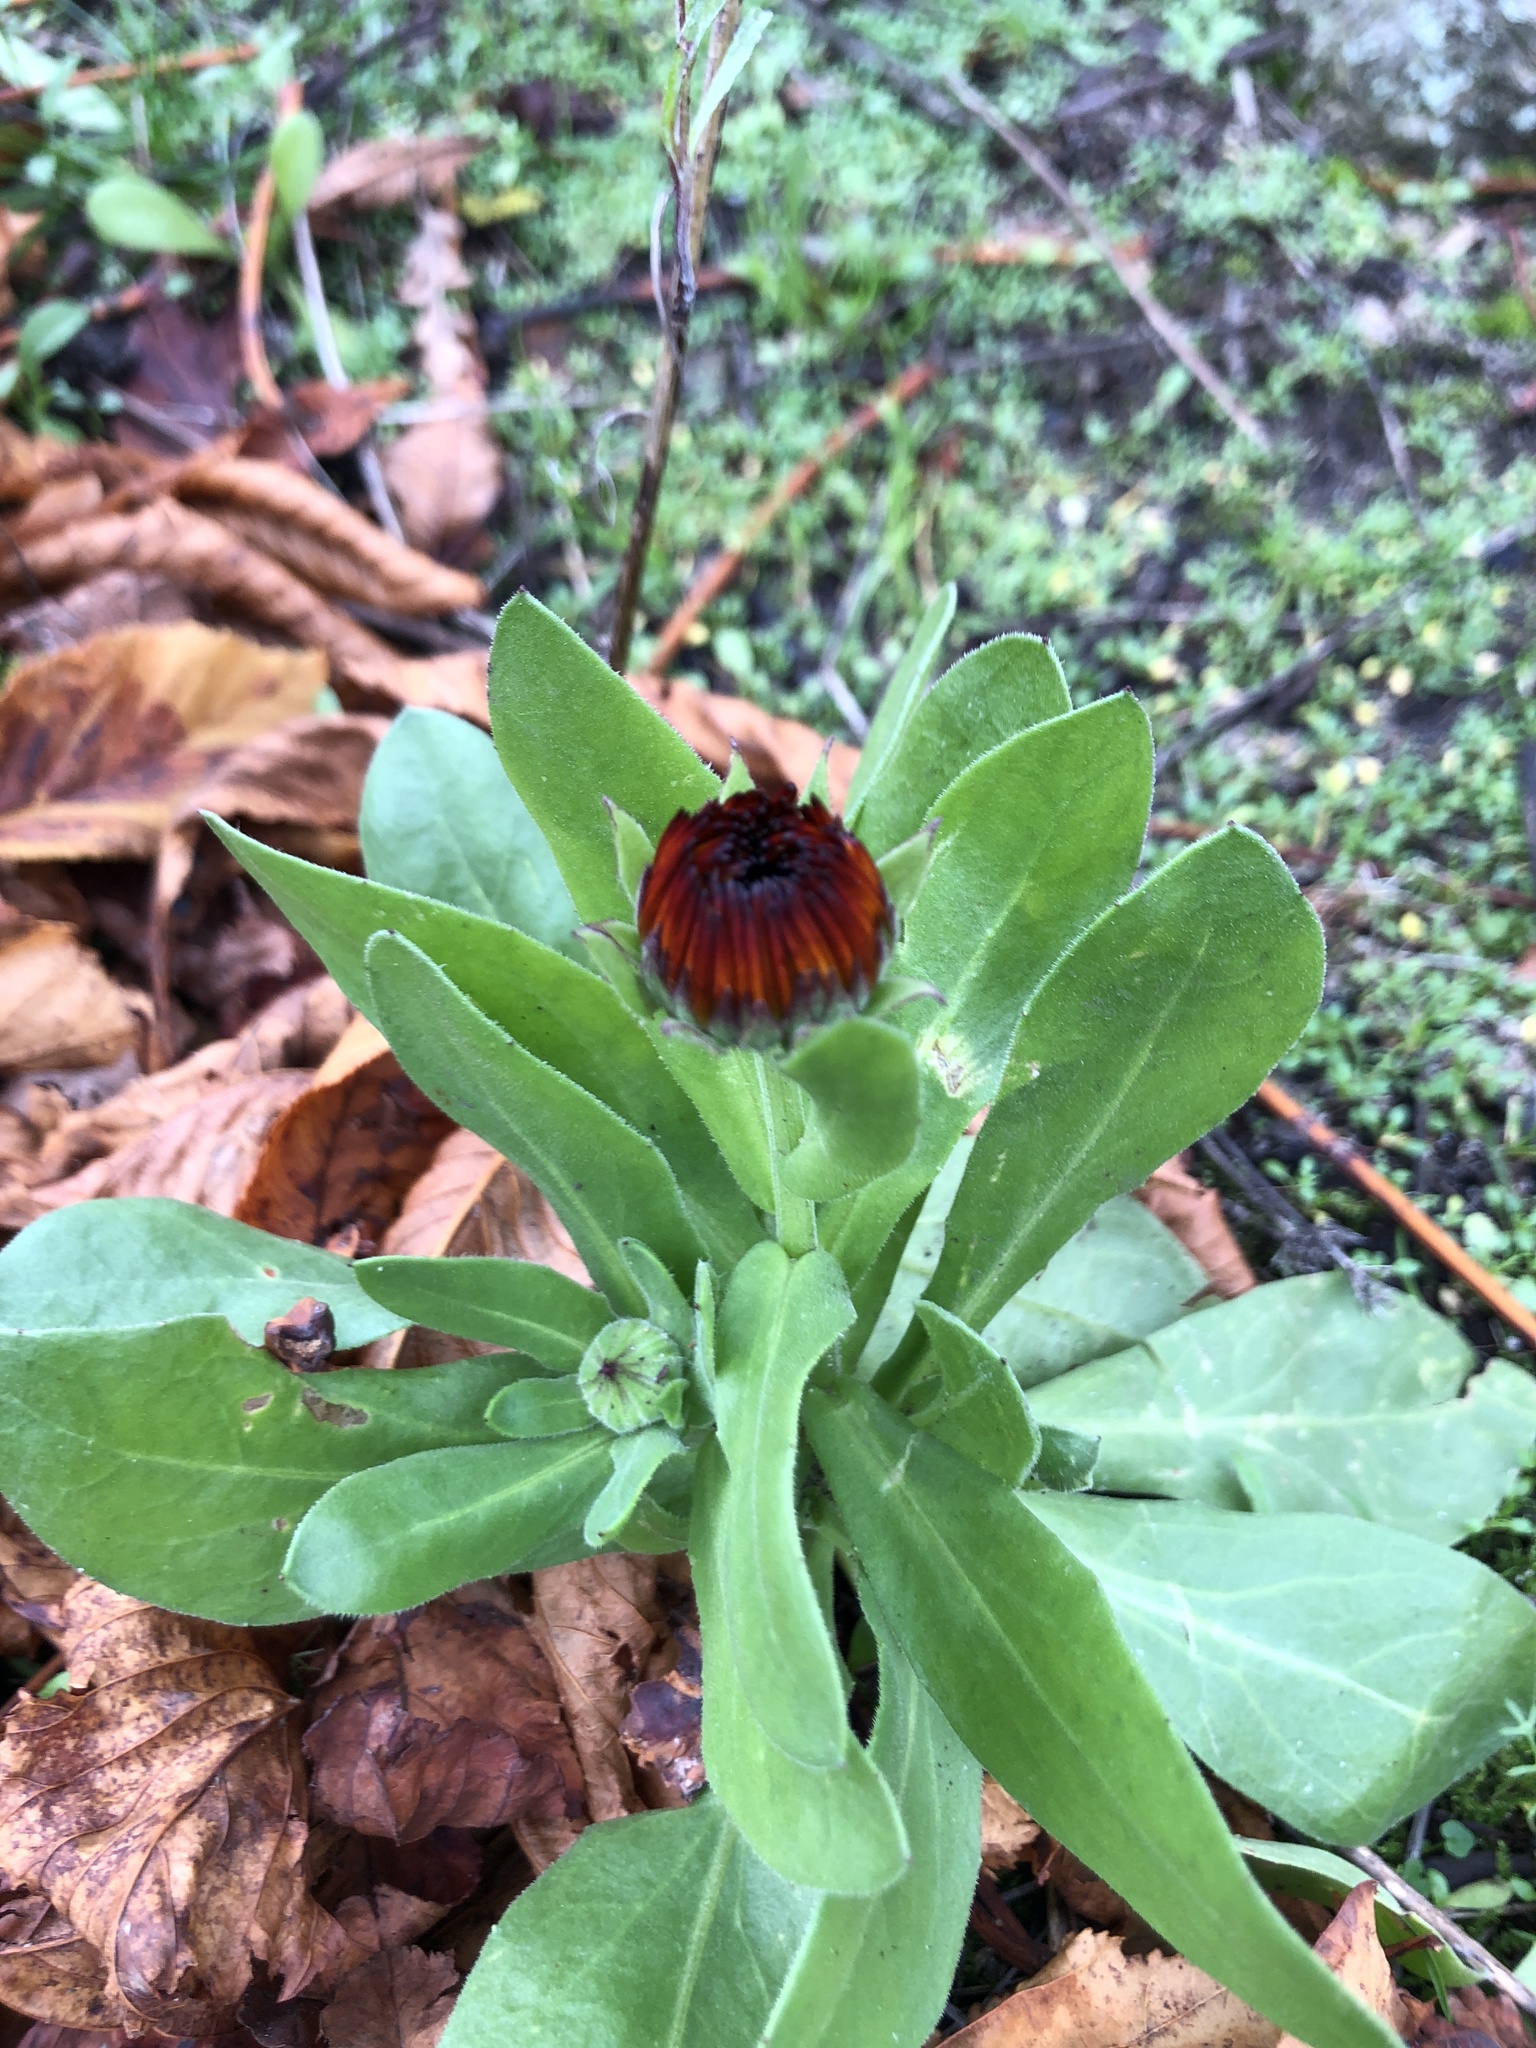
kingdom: Plantae
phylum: Tracheophyta
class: Magnoliopsida
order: Asterales
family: Asteraceae
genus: Calendula
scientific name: Calendula officinalis
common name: Pot marigold
